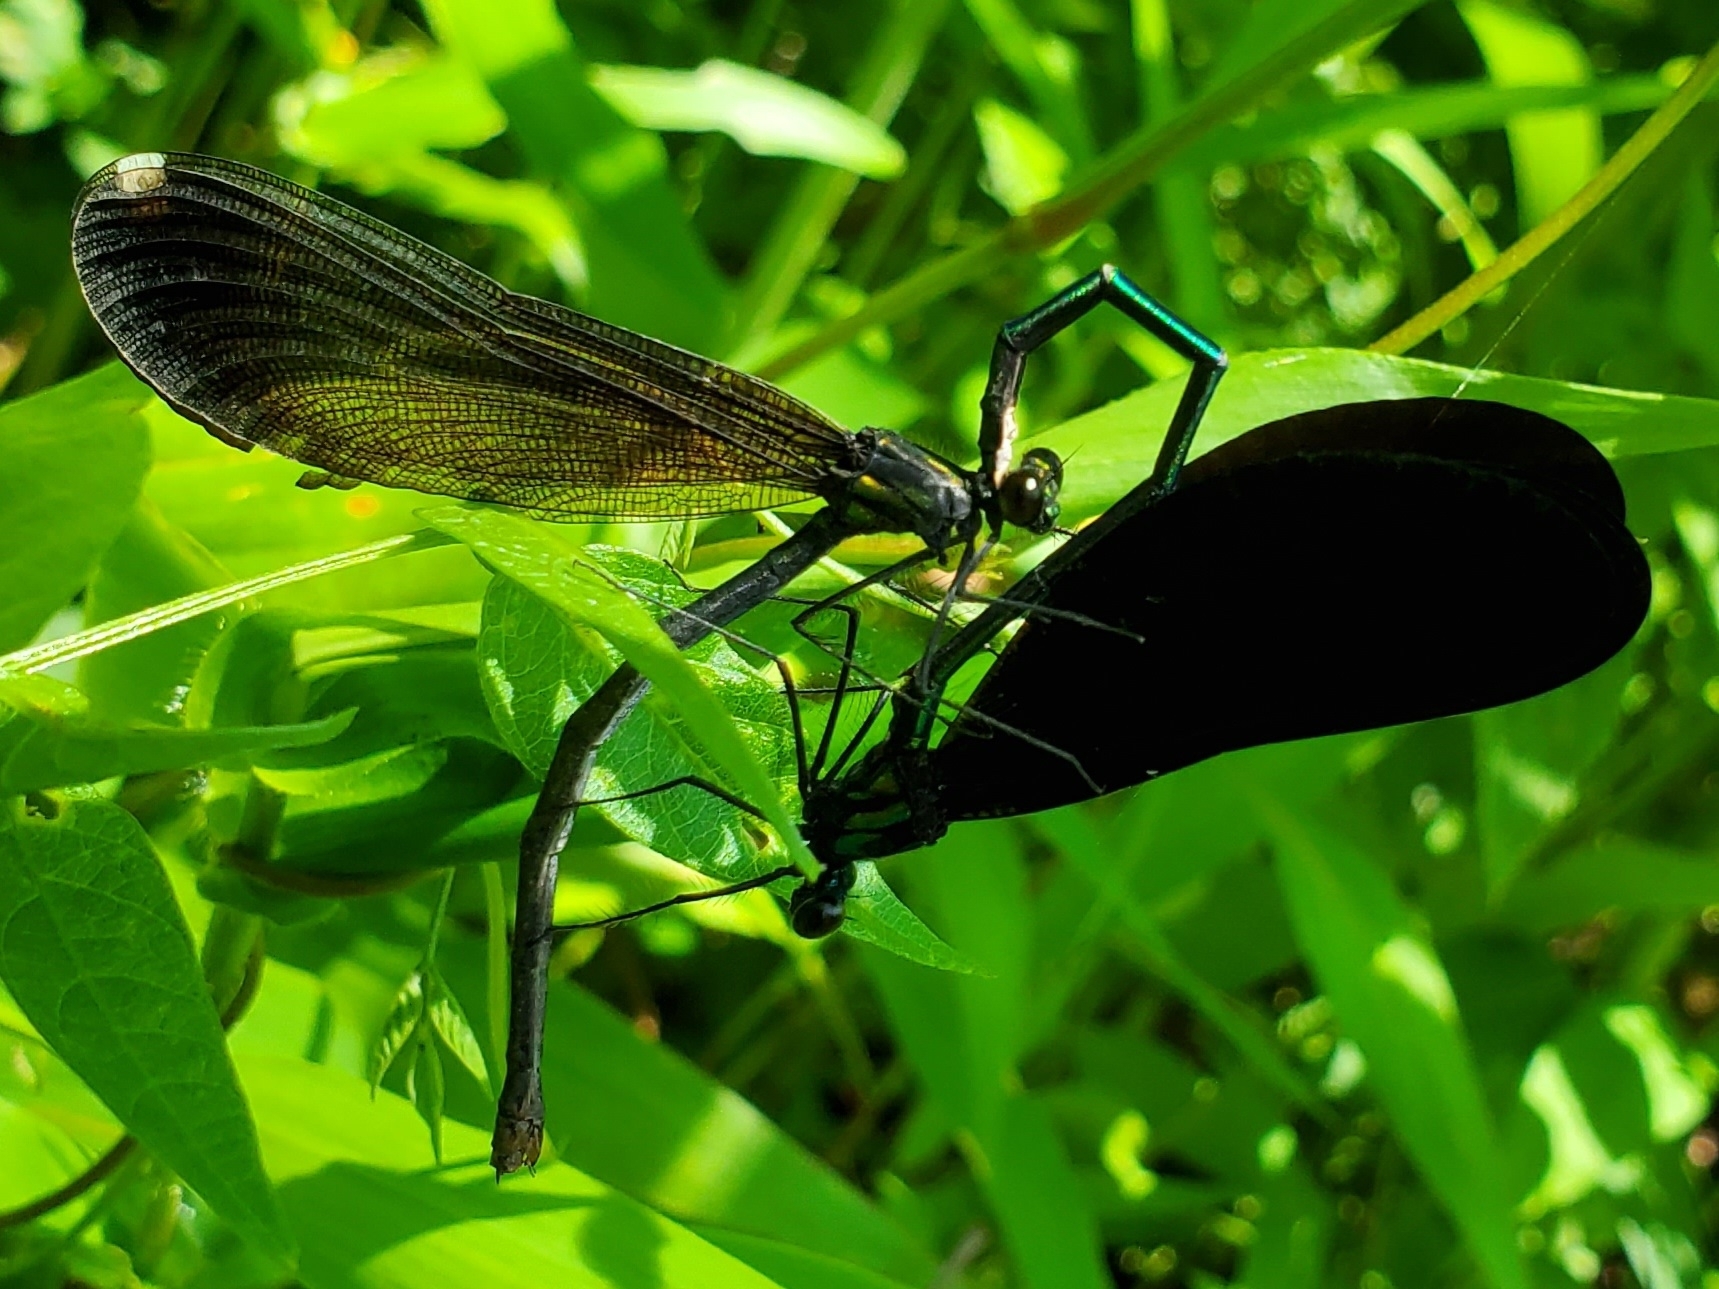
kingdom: Animalia
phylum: Arthropoda
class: Insecta
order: Odonata
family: Calopterygidae
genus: Calopteryx
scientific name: Calopteryx maculata
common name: Ebony jewelwing
